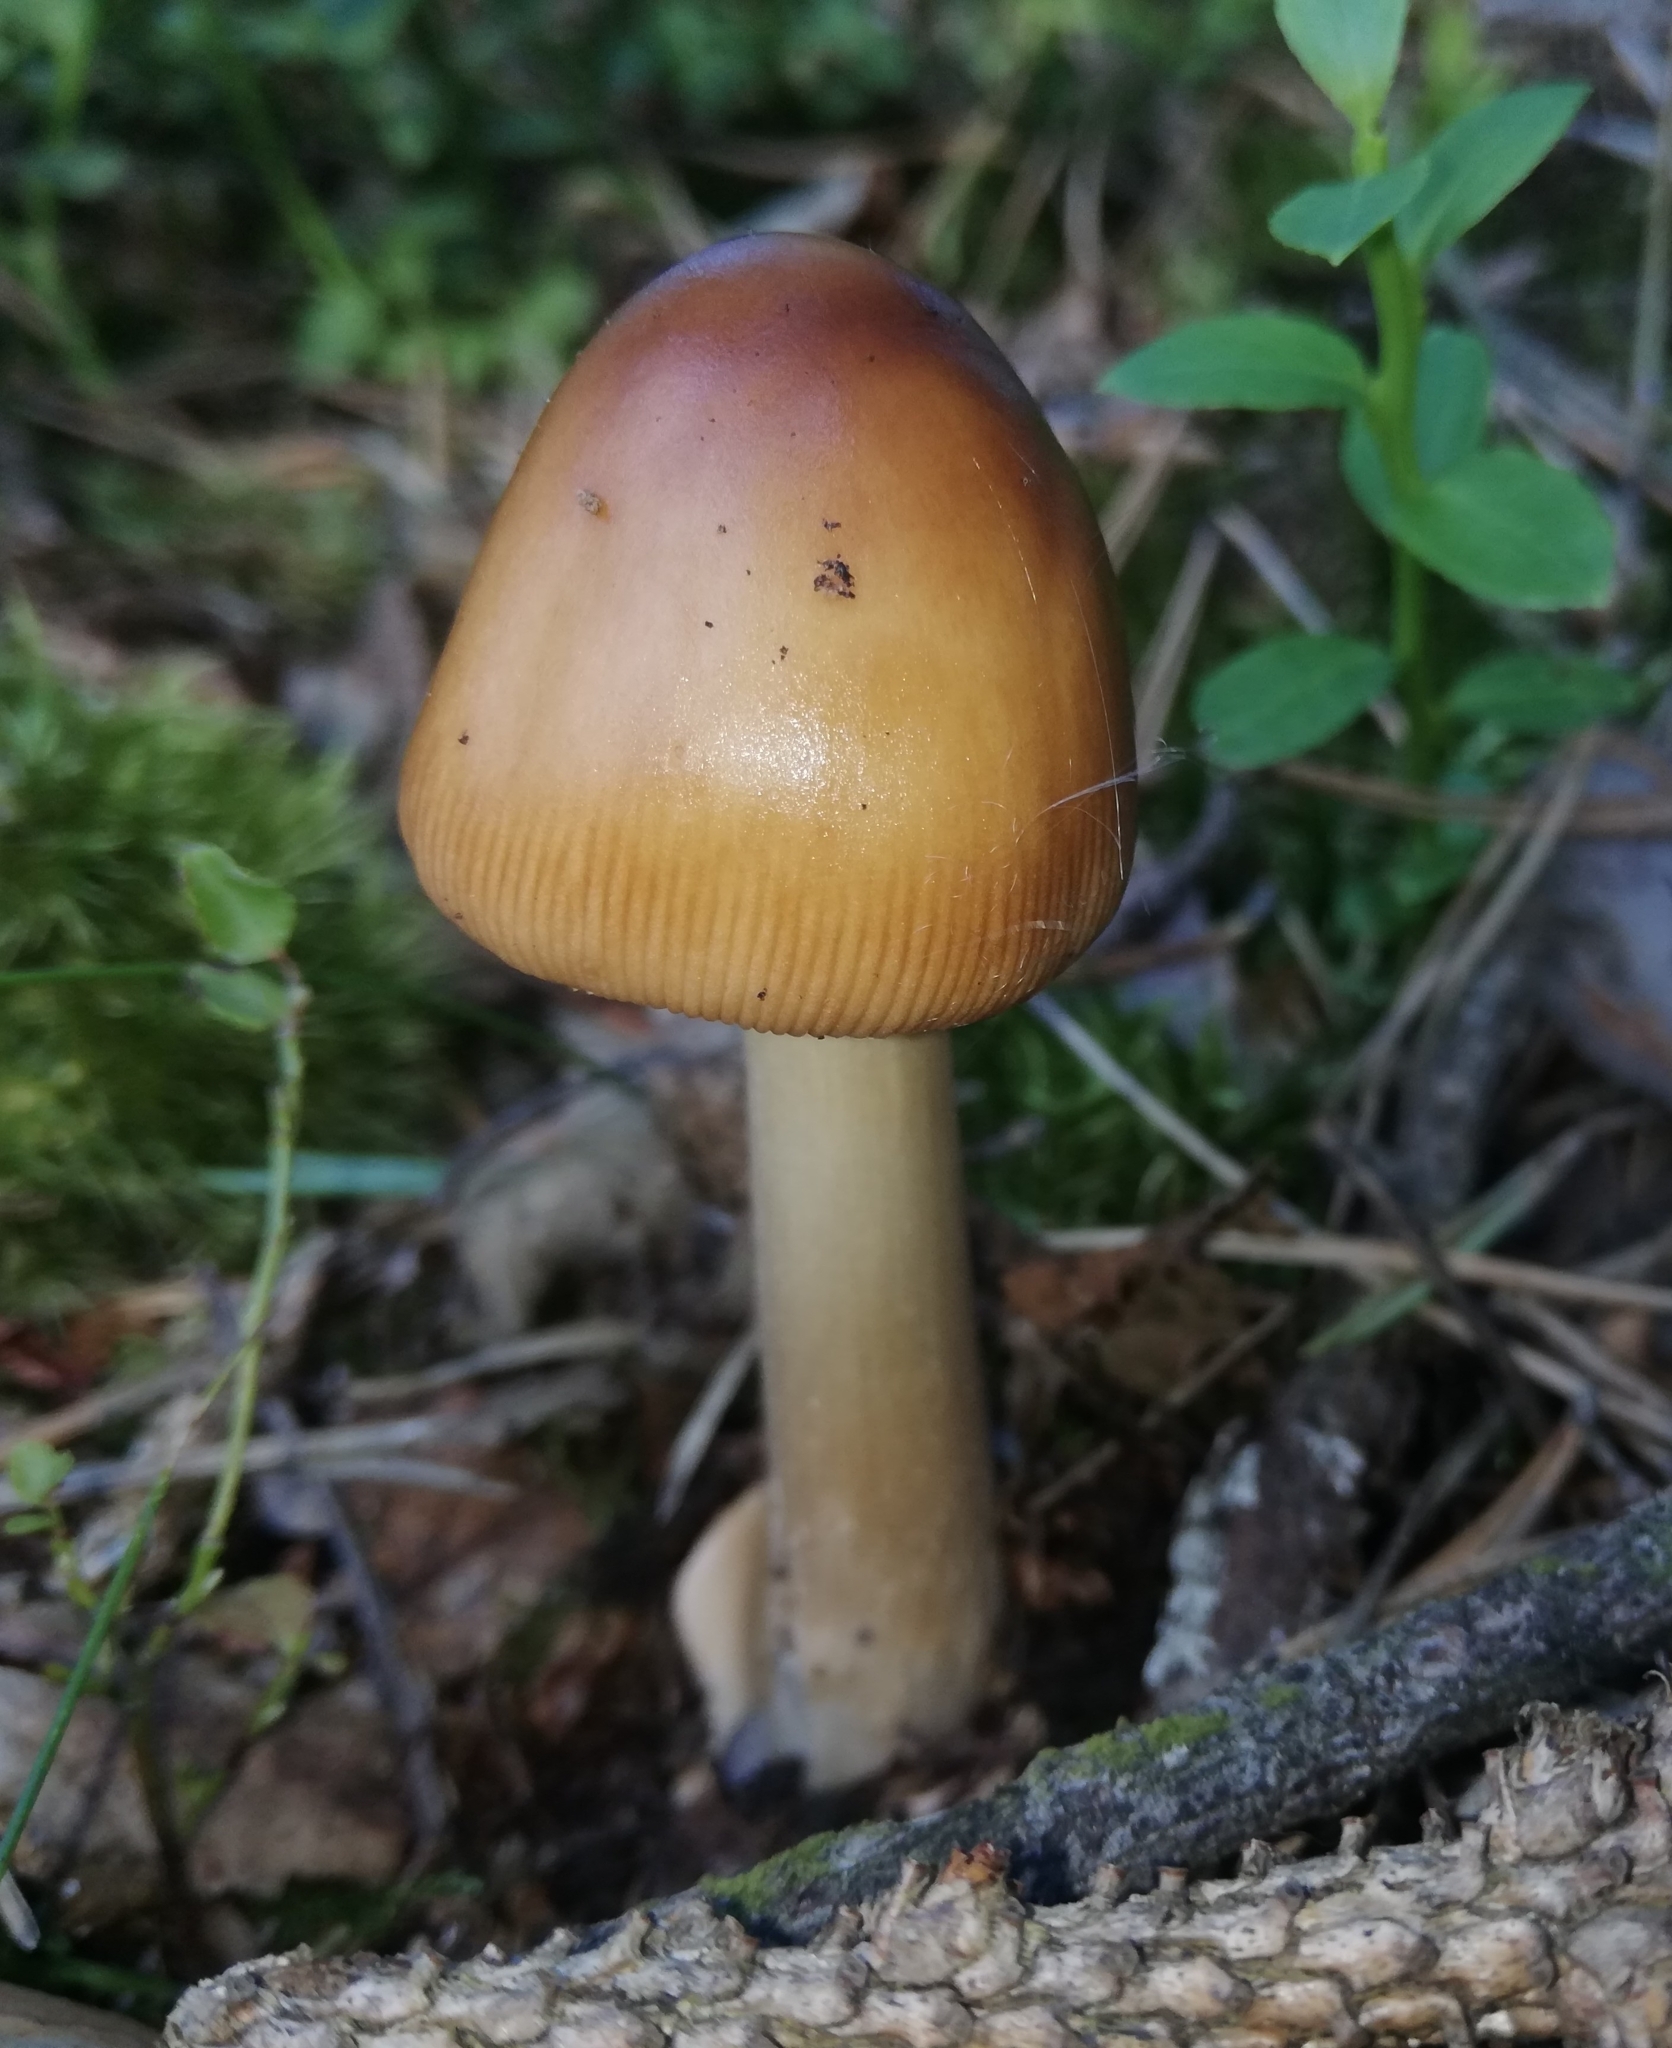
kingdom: Fungi
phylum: Basidiomycota
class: Agaricomycetes
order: Agaricales
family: Amanitaceae
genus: Amanita
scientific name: Amanita fulva
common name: Tawny grisette
